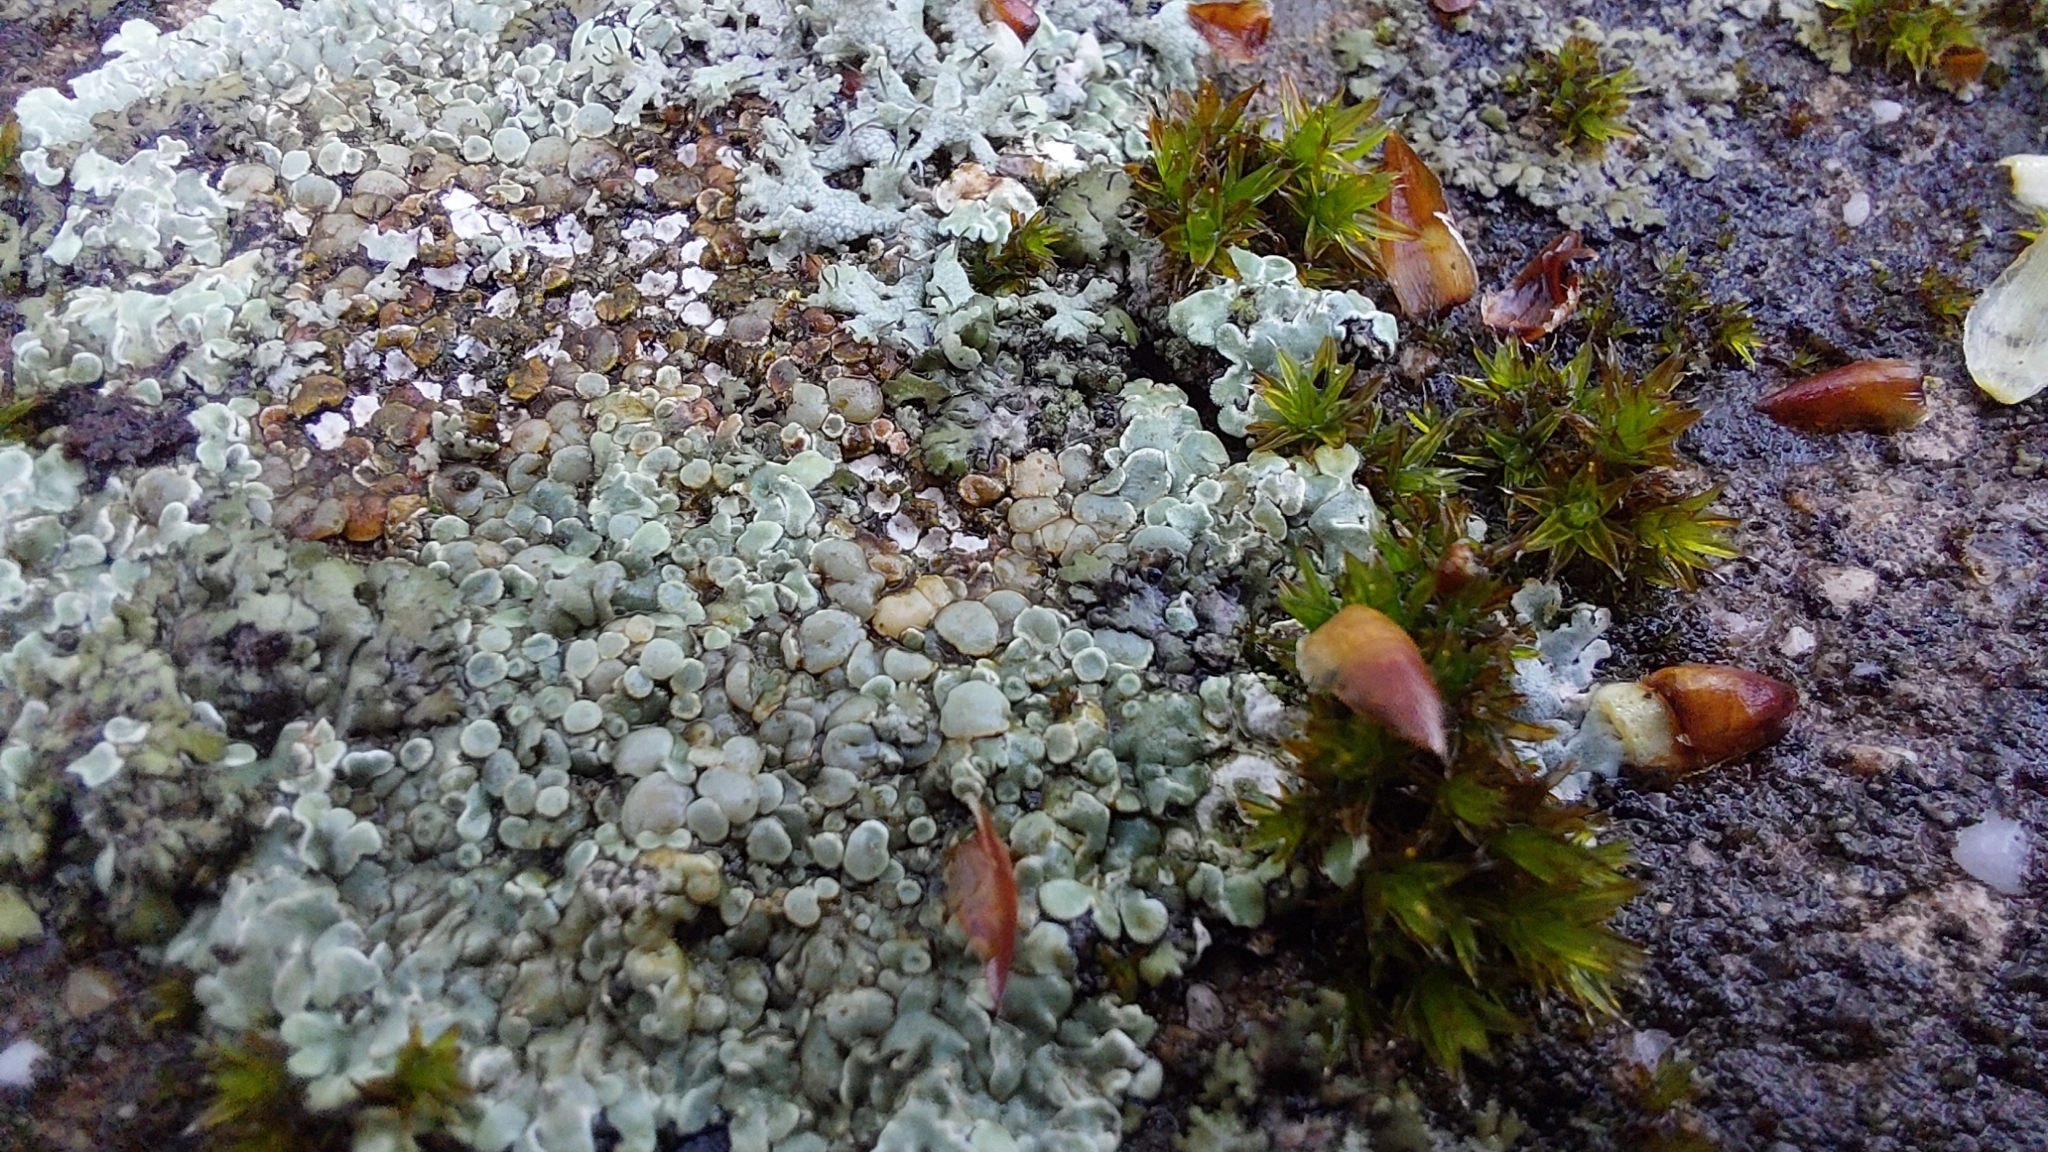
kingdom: Fungi
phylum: Ascomycota
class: Lecanoromycetes
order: Lecanorales
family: Lecanoraceae
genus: Protoparmeliopsis
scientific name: Protoparmeliopsis muralis
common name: Stonewall rim lichen
